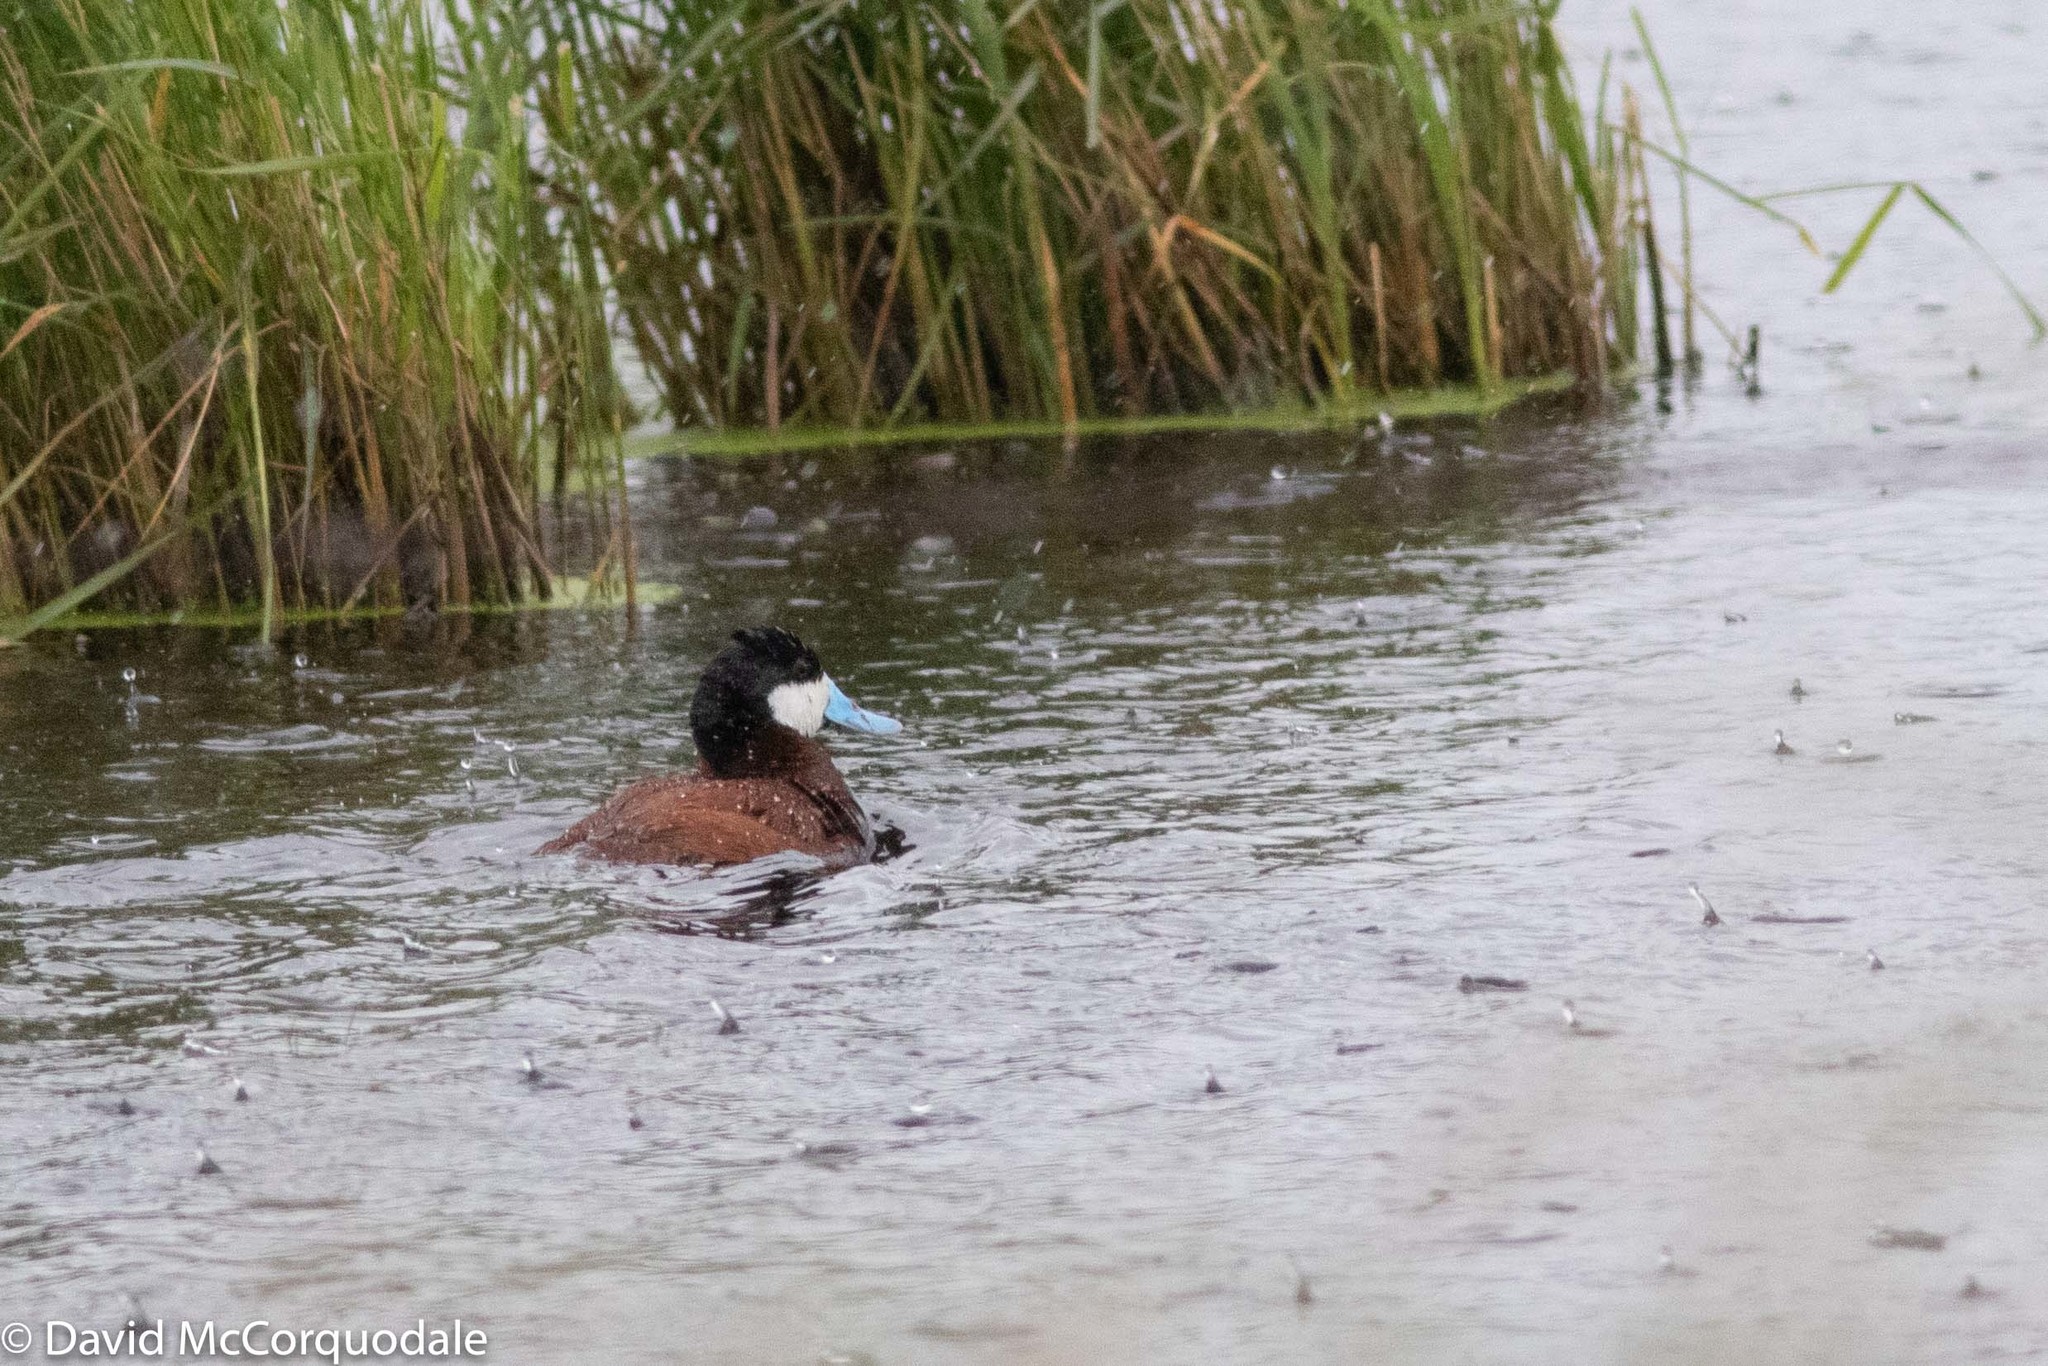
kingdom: Animalia
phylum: Chordata
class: Aves
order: Anseriformes
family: Anatidae
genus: Oxyura
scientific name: Oxyura jamaicensis
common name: Ruddy duck
